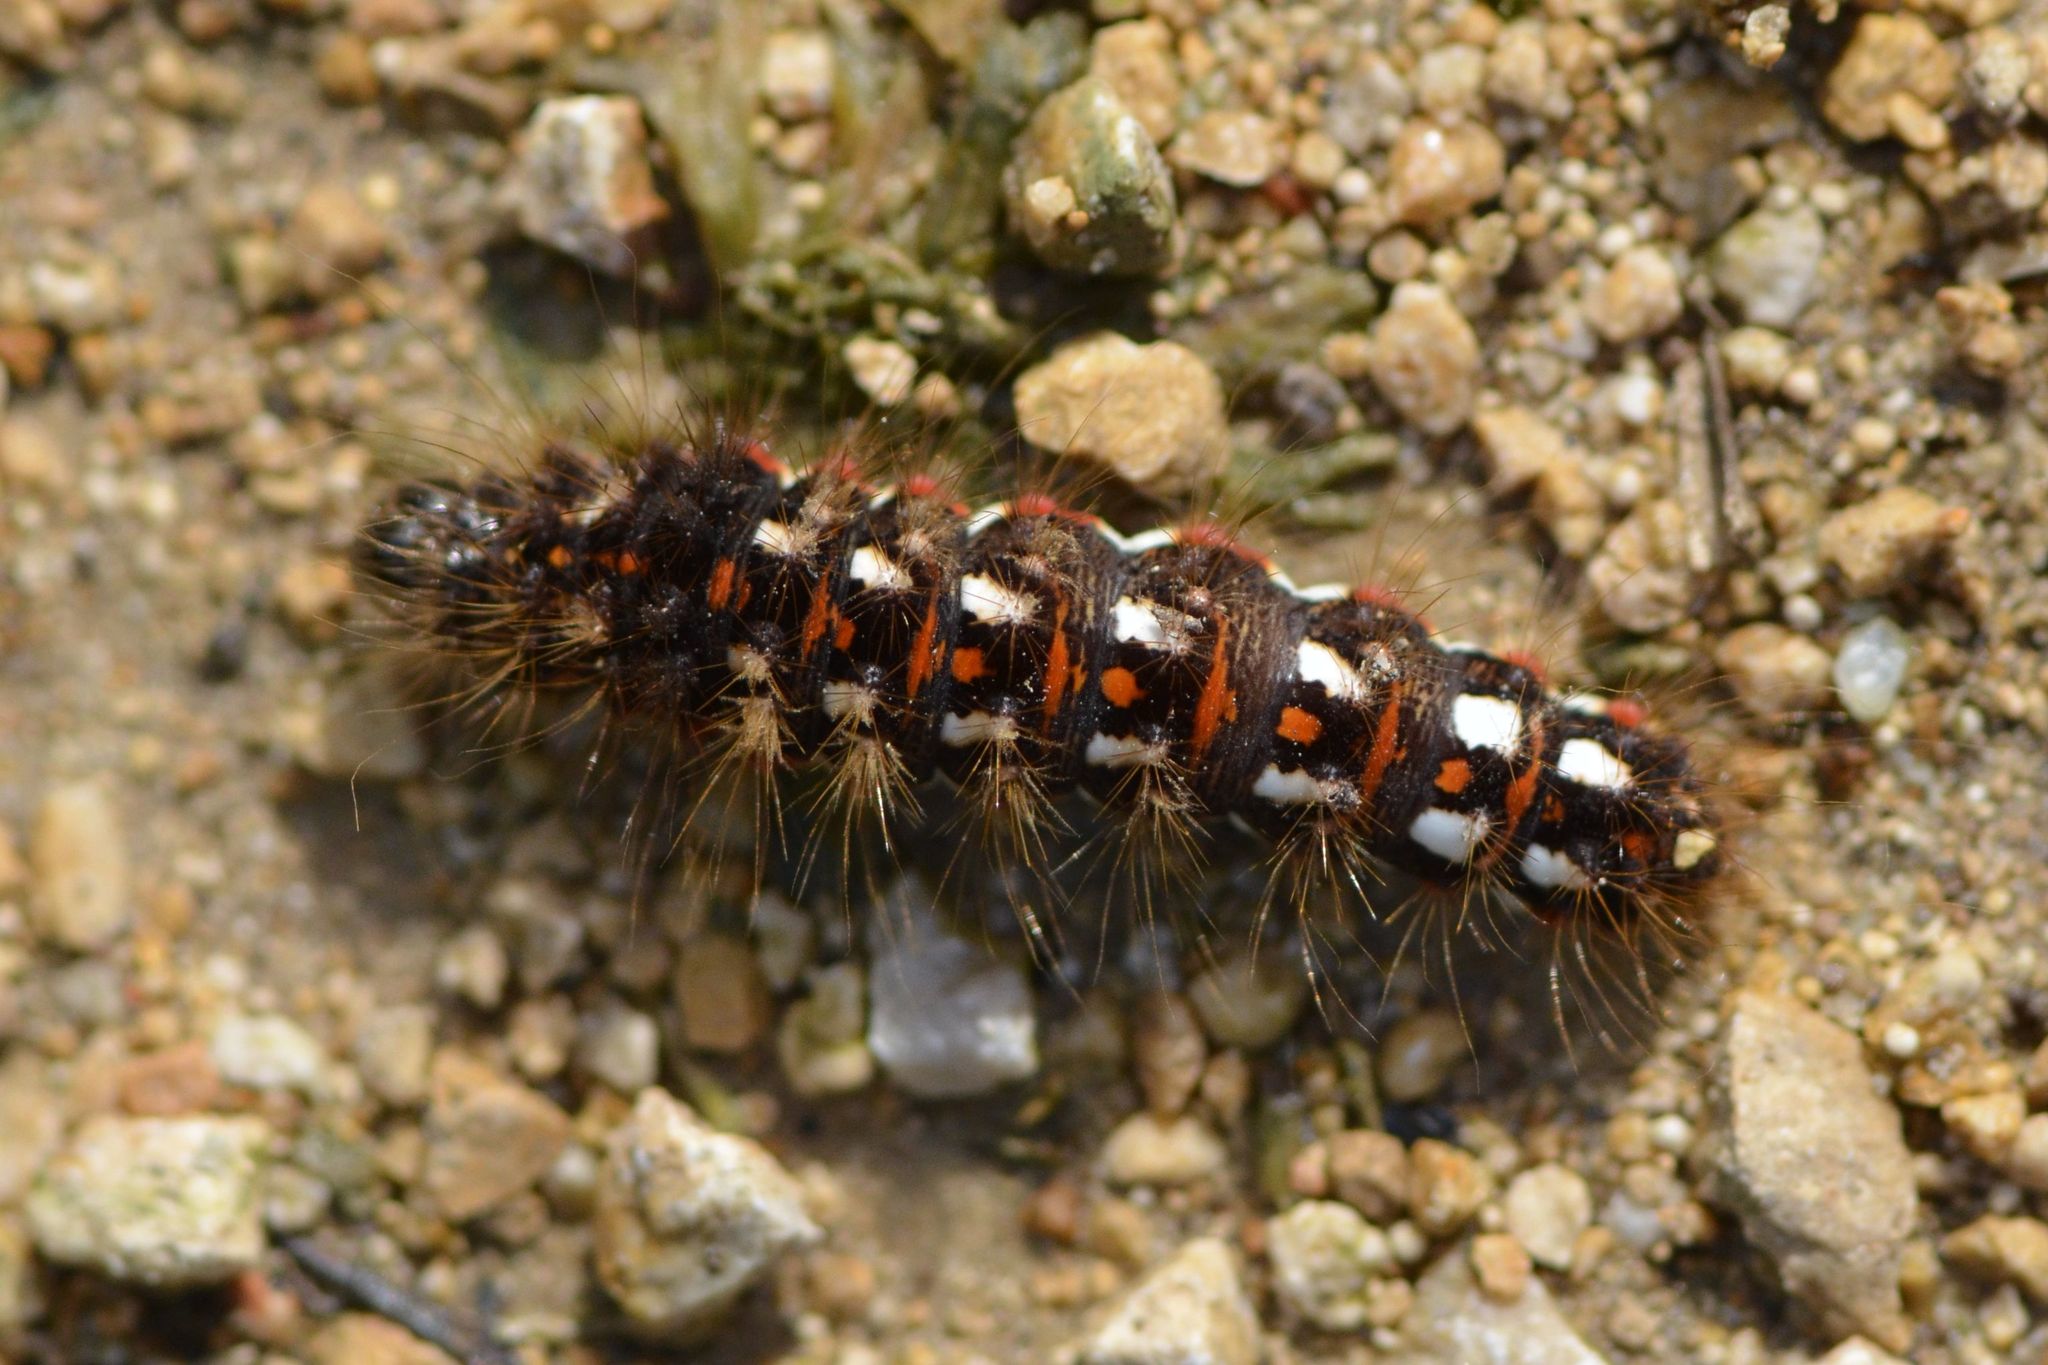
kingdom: Animalia
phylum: Arthropoda
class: Insecta
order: Lepidoptera
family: Noctuidae
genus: Acronicta
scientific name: Acronicta rumicis
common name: Knot grass
